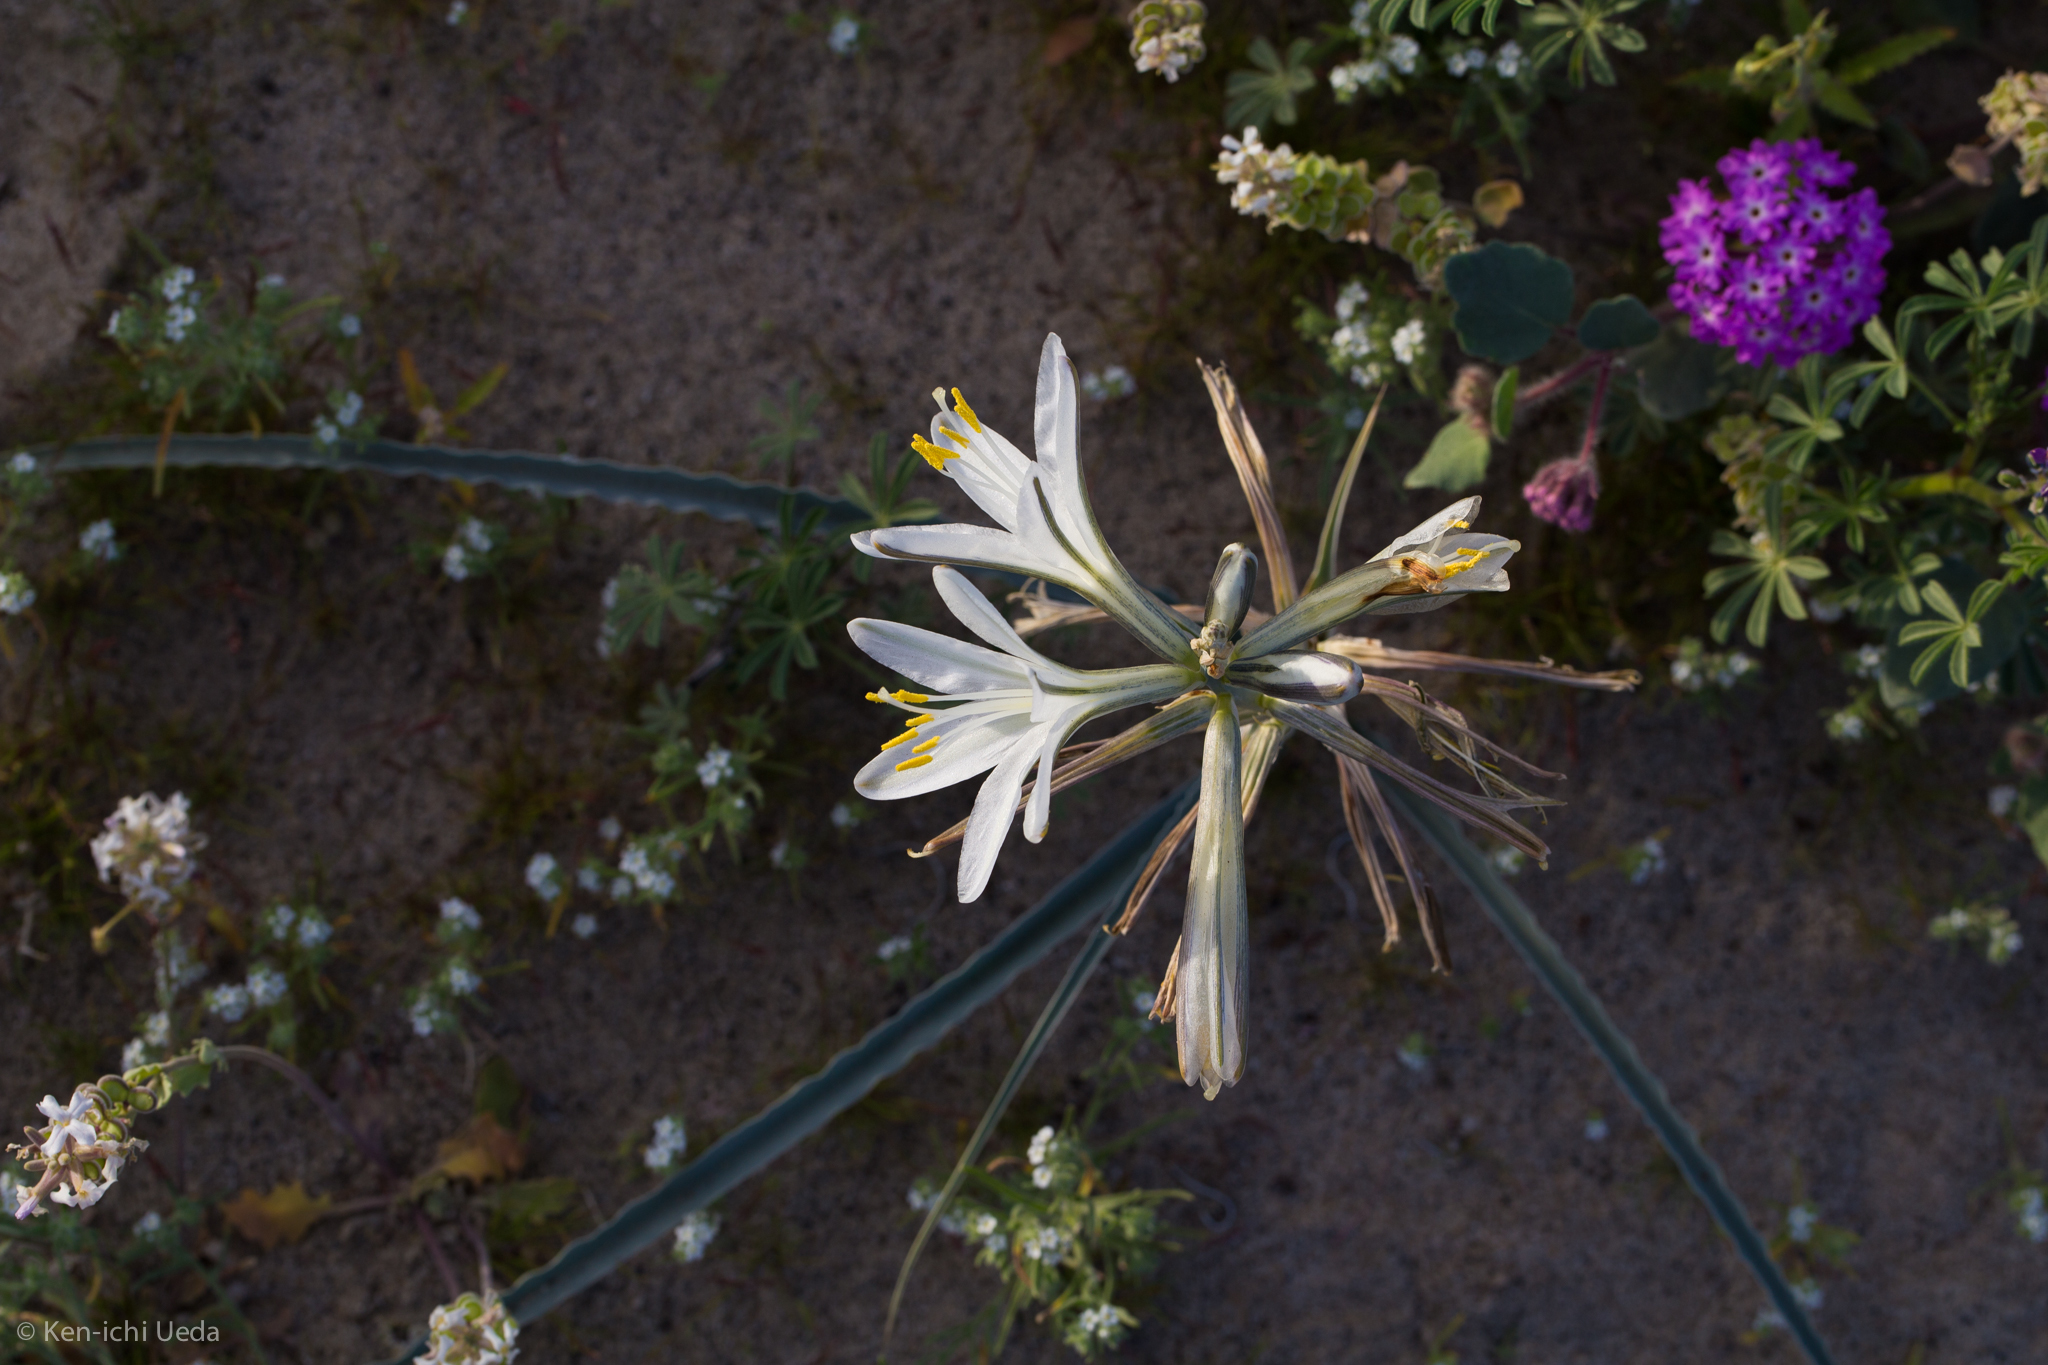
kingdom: Plantae
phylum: Tracheophyta
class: Liliopsida
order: Asparagales
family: Asparagaceae
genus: Hesperocallis
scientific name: Hesperocallis undulata
